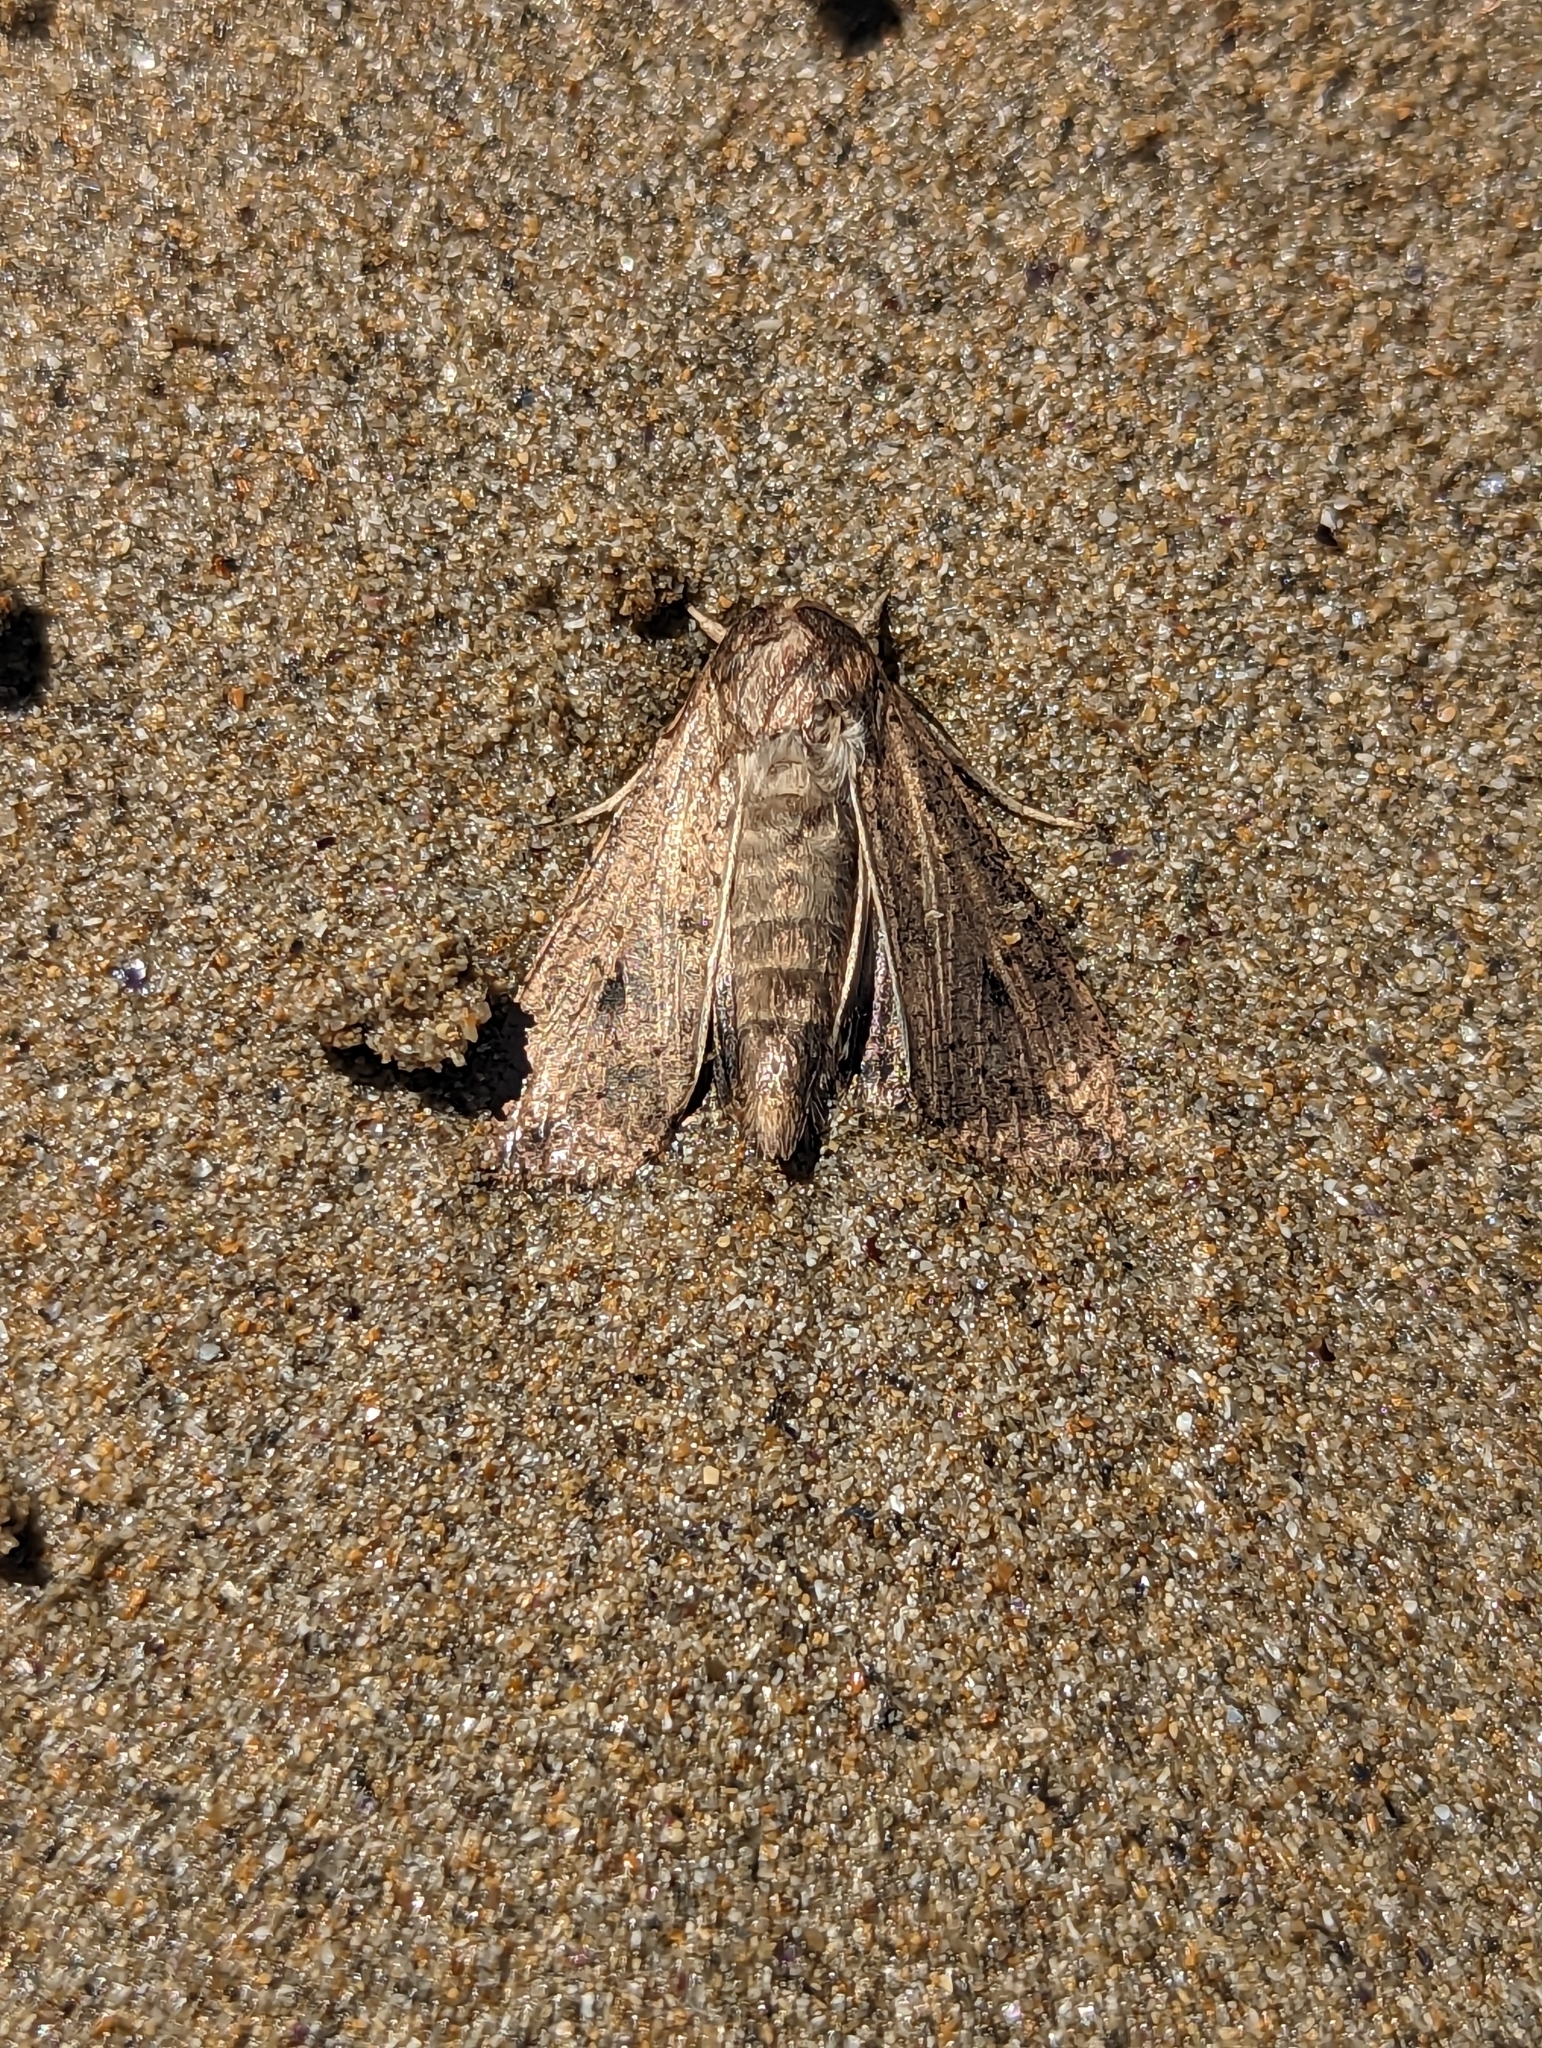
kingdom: Animalia
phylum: Arthropoda
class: Insecta
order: Lepidoptera
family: Noctuidae
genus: Mythimna
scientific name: Mythimna convecta
